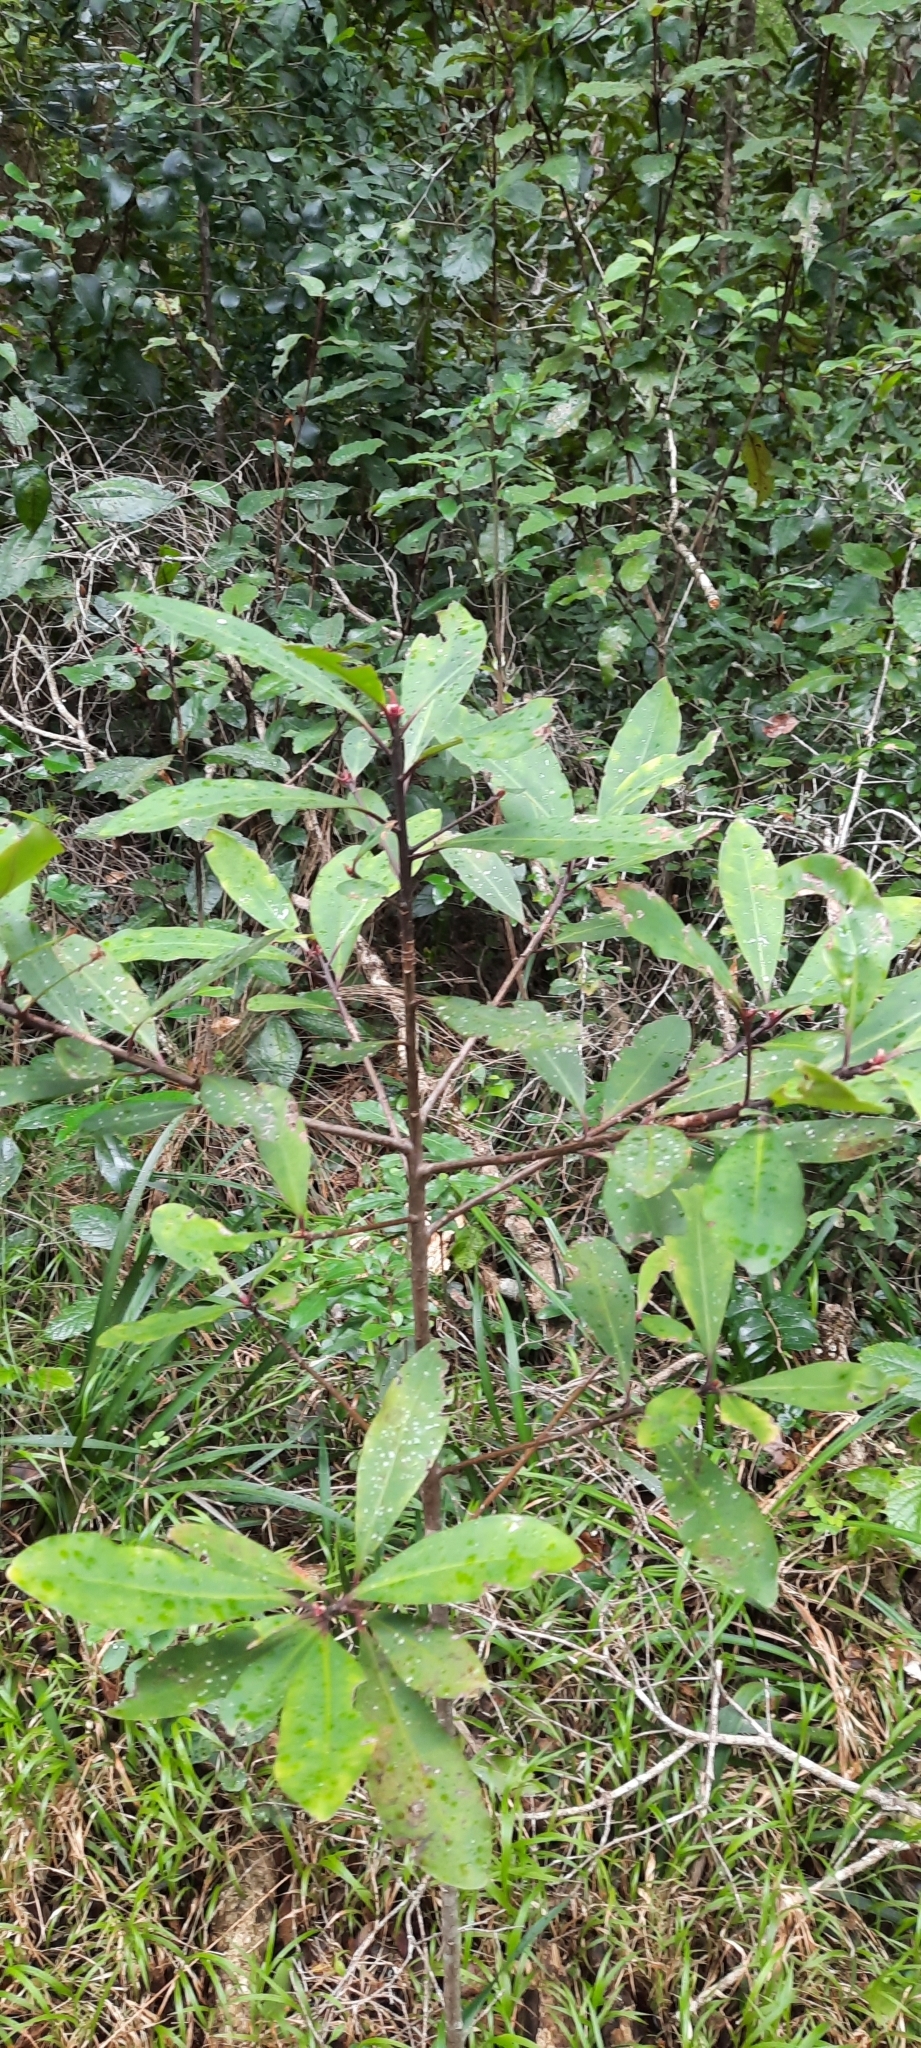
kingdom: Plantae
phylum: Tracheophyta
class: Magnoliopsida
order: Ericales
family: Primulaceae
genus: Myrsine
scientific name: Myrsine melanophloeos
